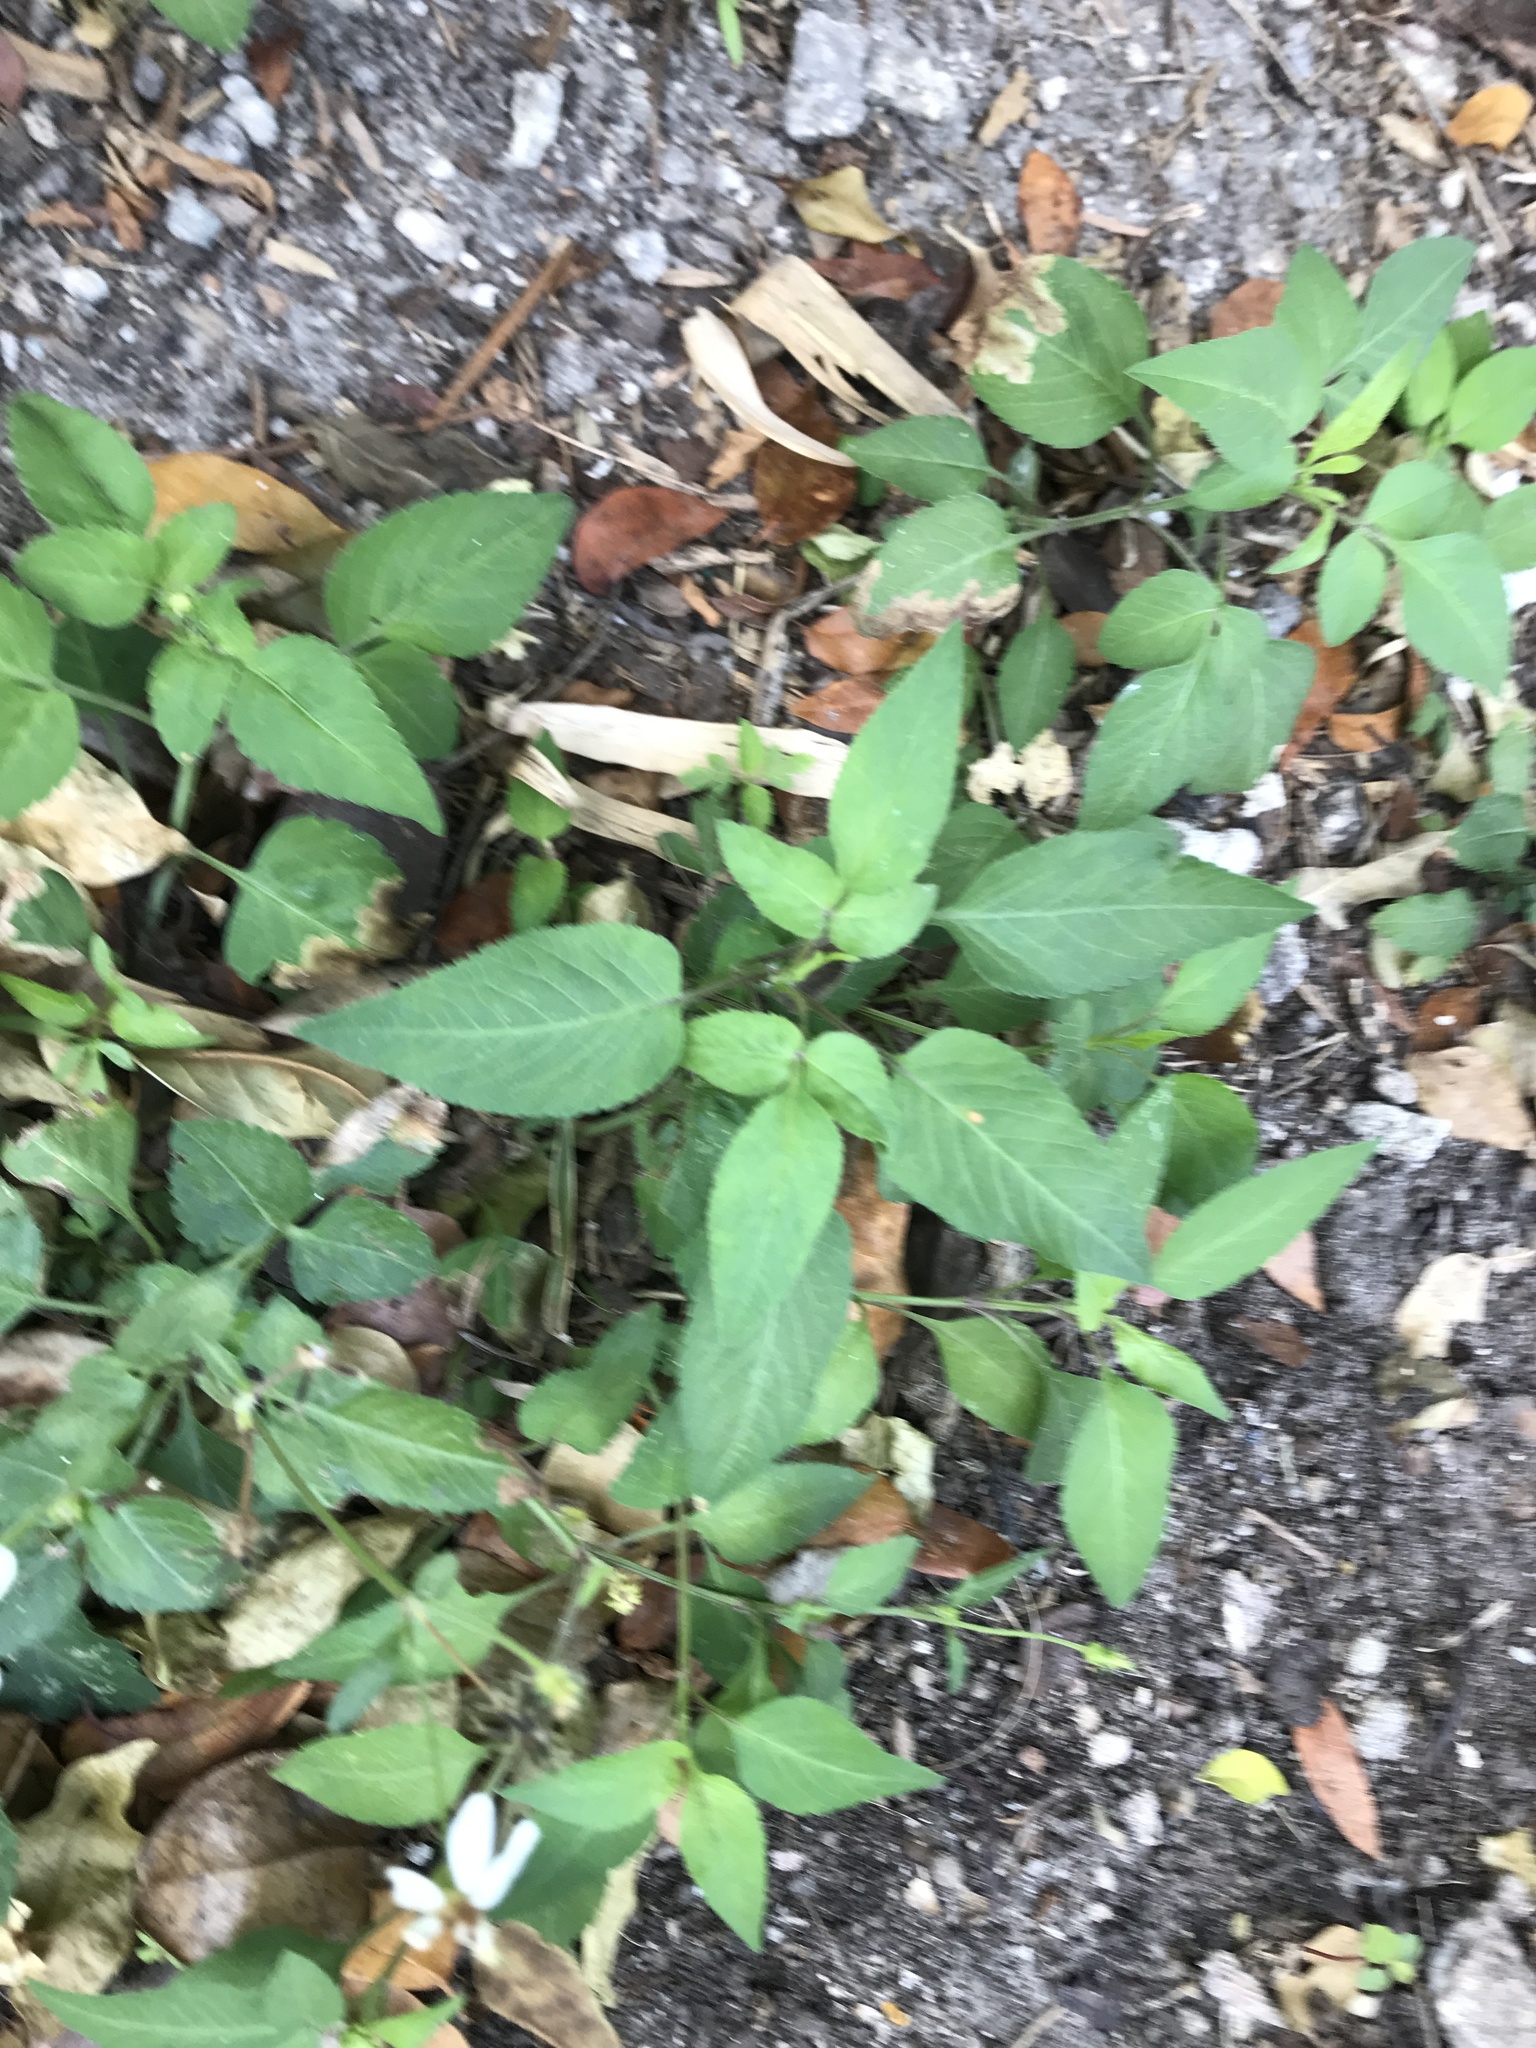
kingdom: Plantae
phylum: Tracheophyta
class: Magnoliopsida
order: Asterales
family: Asteraceae
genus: Bidens
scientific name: Bidens alba
